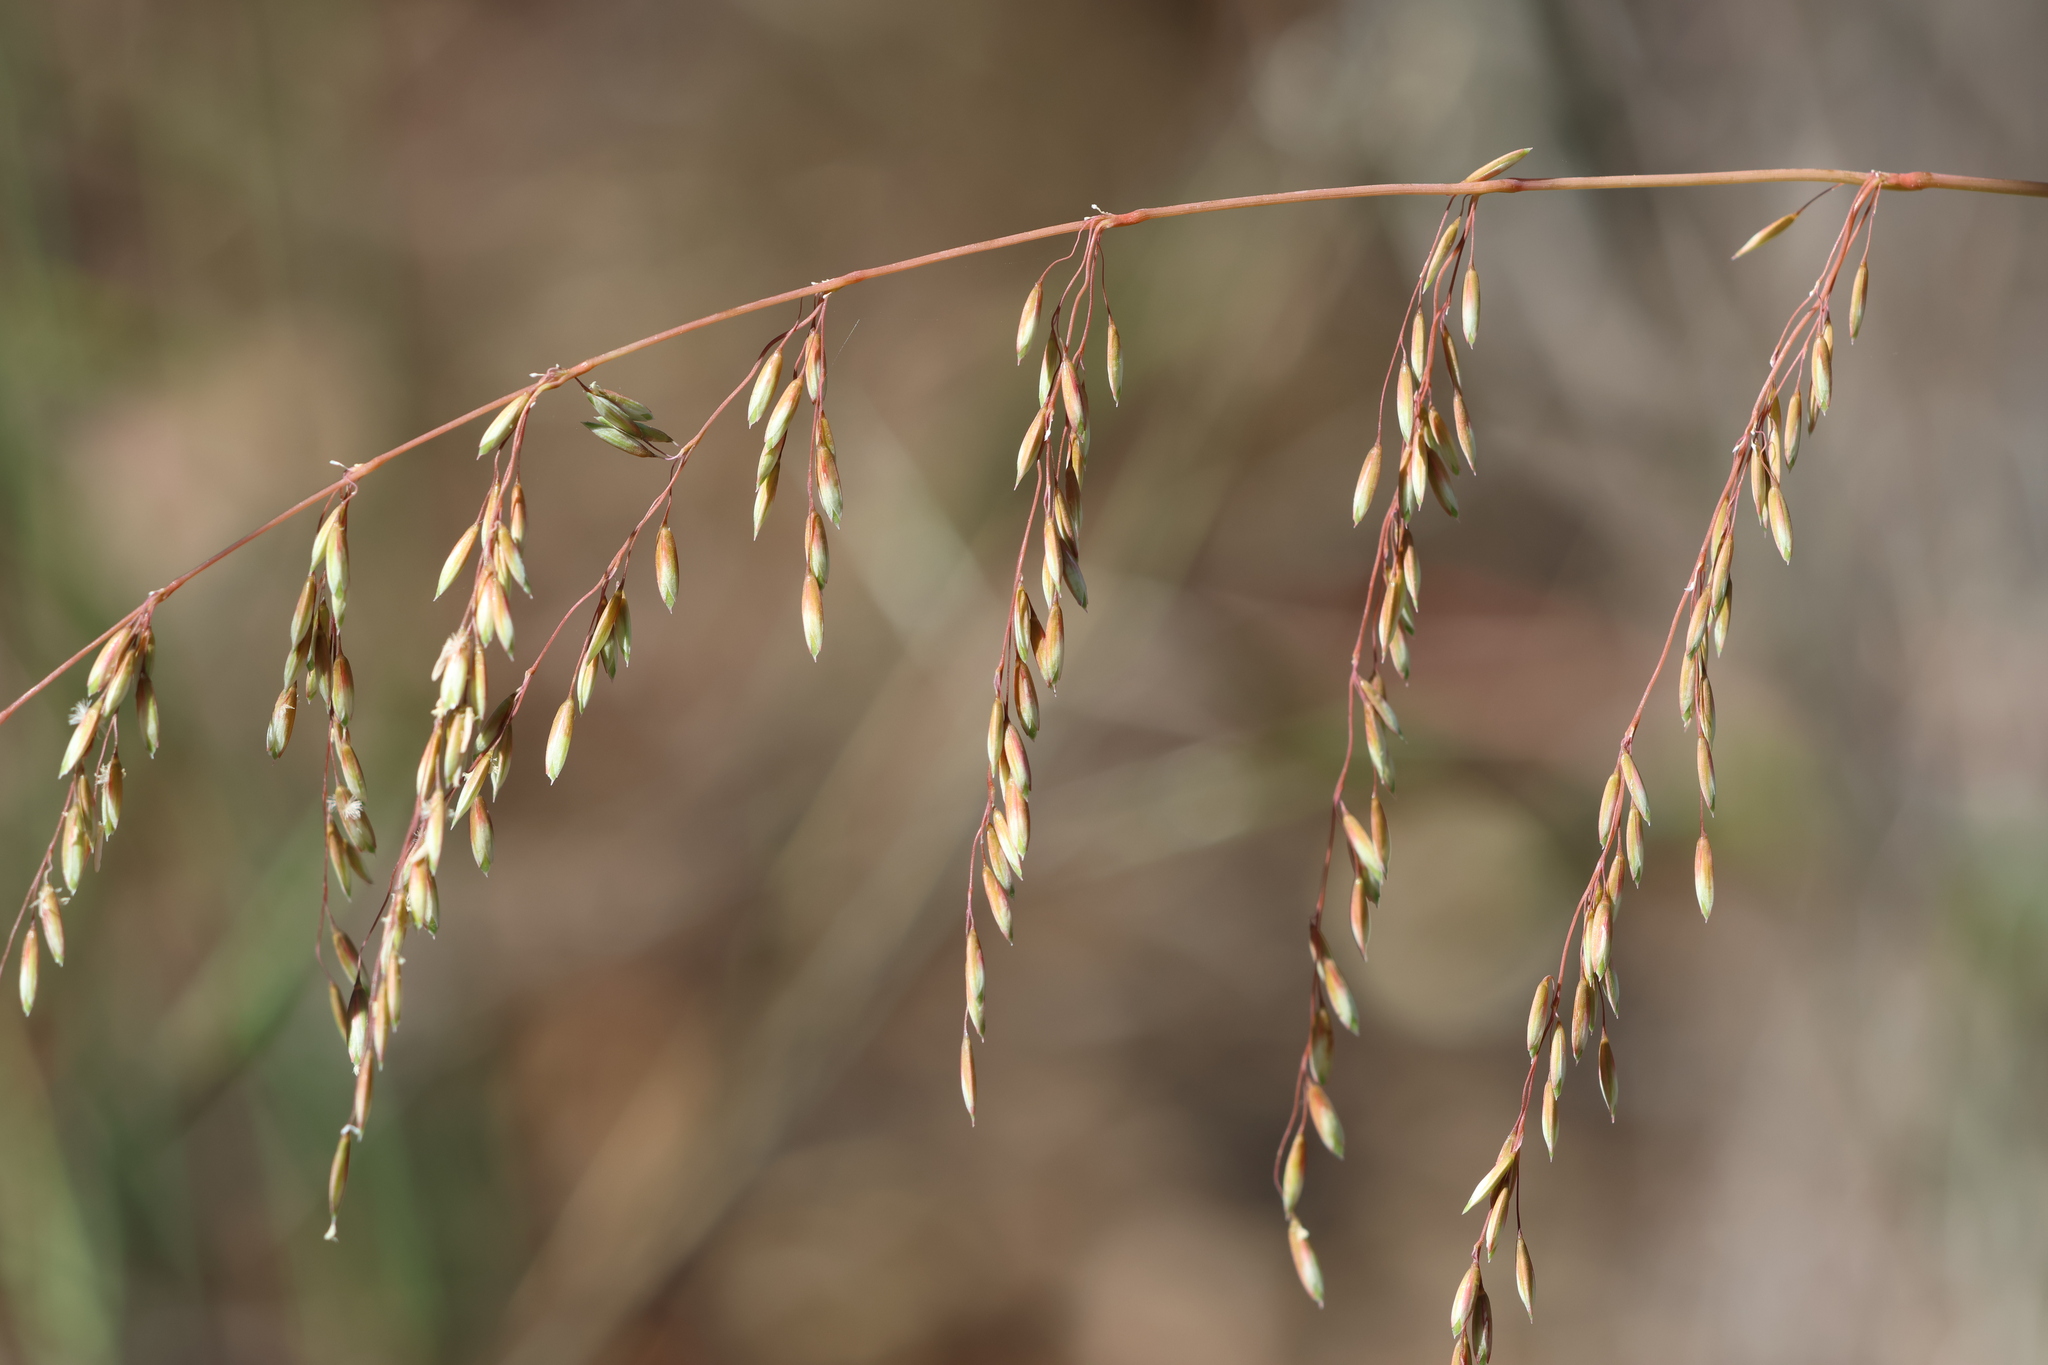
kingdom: Plantae
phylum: Tracheophyta
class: Liliopsida
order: Poales
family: Poaceae
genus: Ehrharta
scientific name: Ehrharta calycina
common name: Perennial veldtgrass
